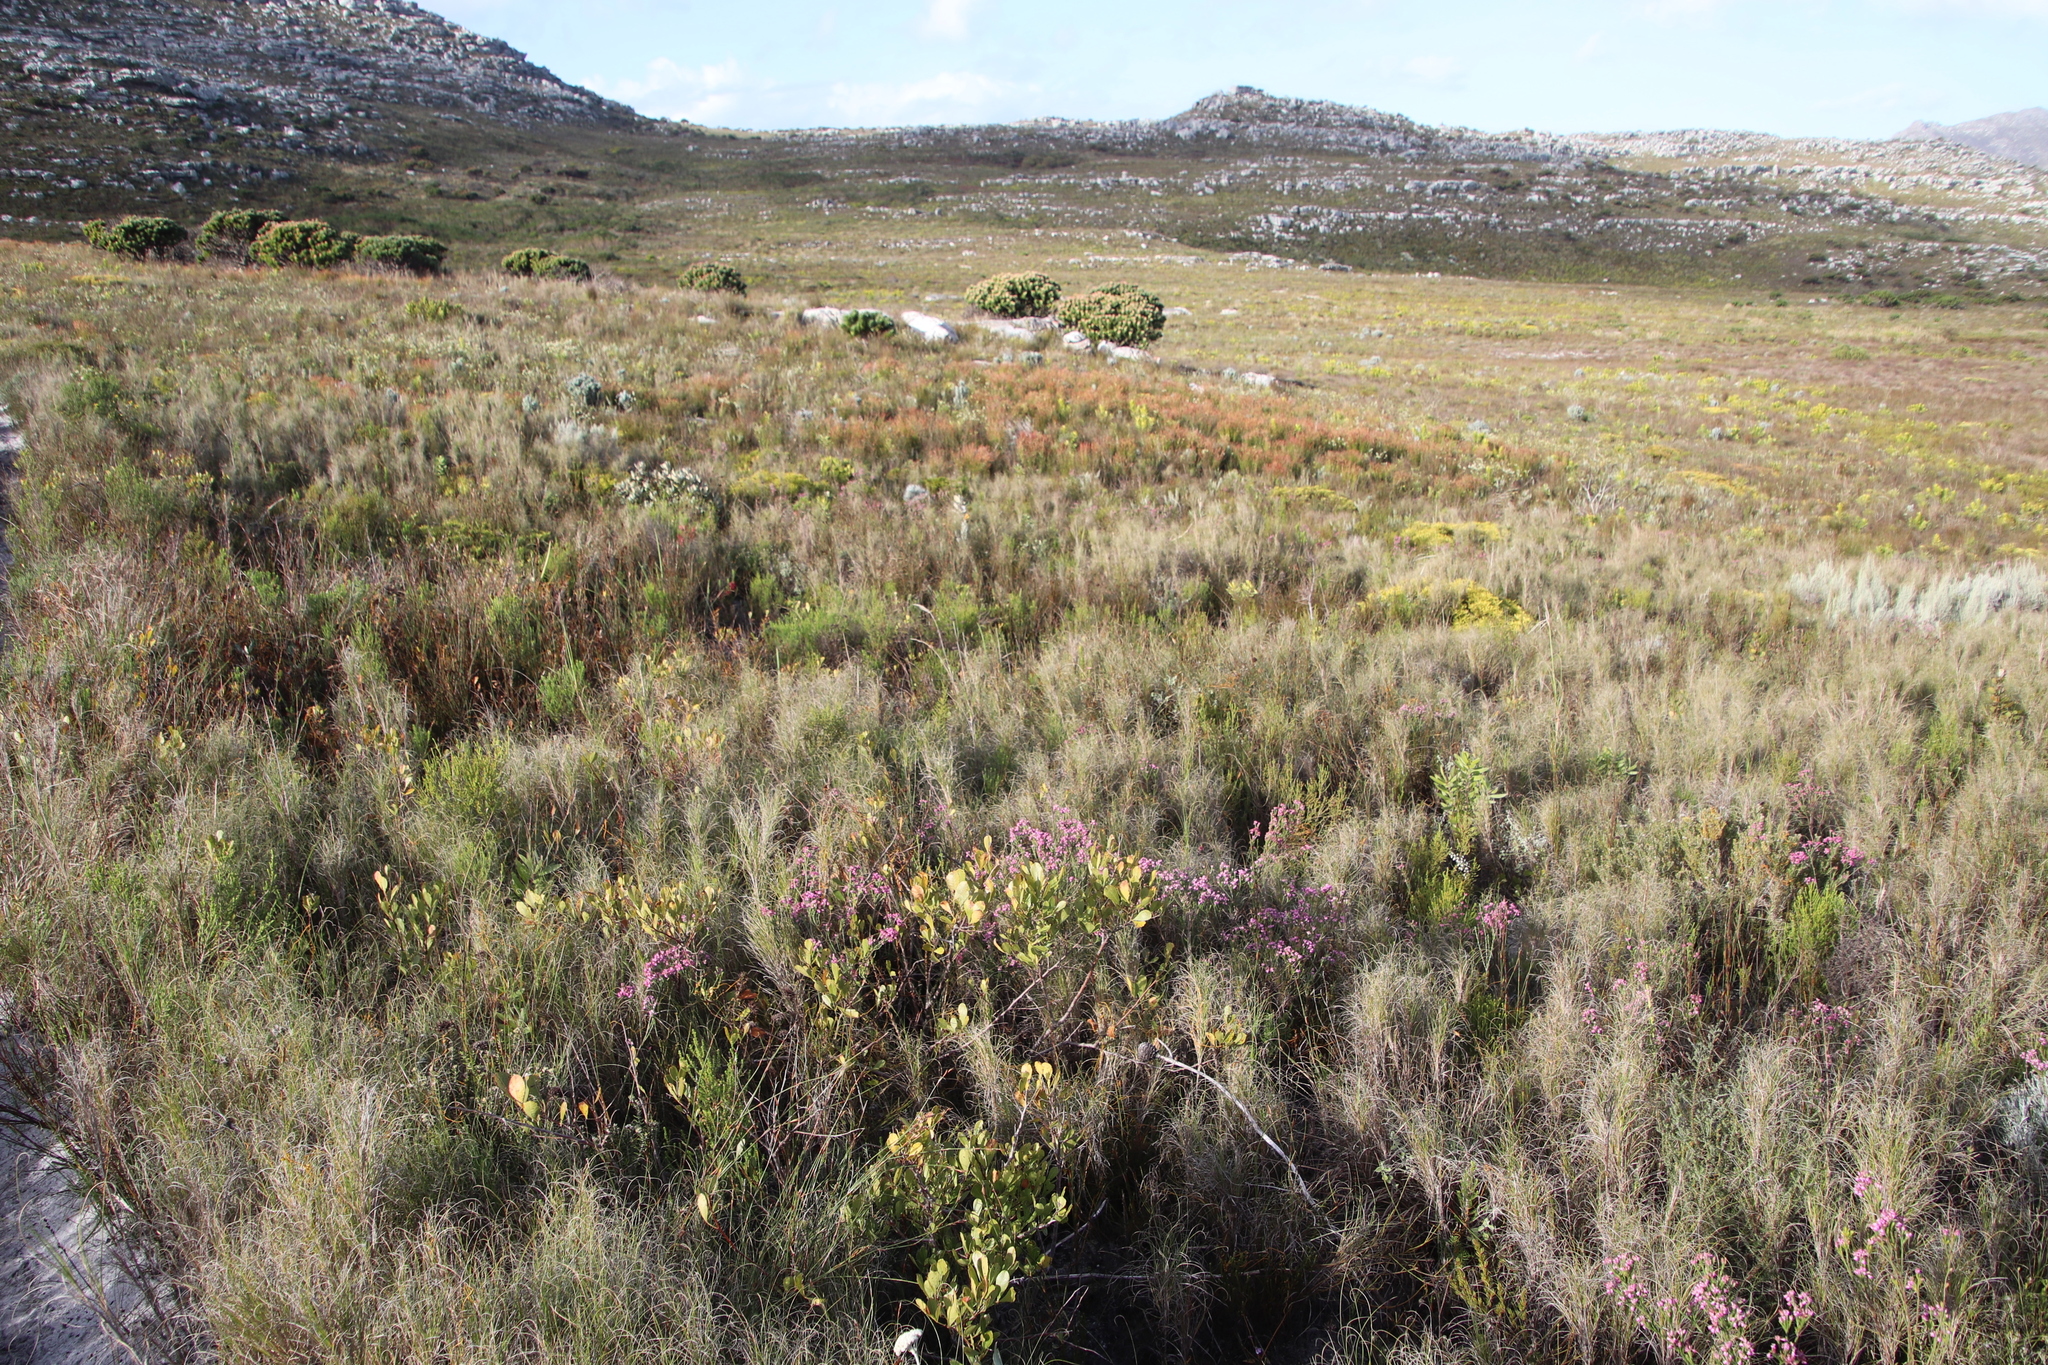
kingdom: Plantae
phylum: Tracheophyta
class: Magnoliopsida
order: Sapindales
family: Anacardiaceae
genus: Searsia
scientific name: Searsia laevigata
